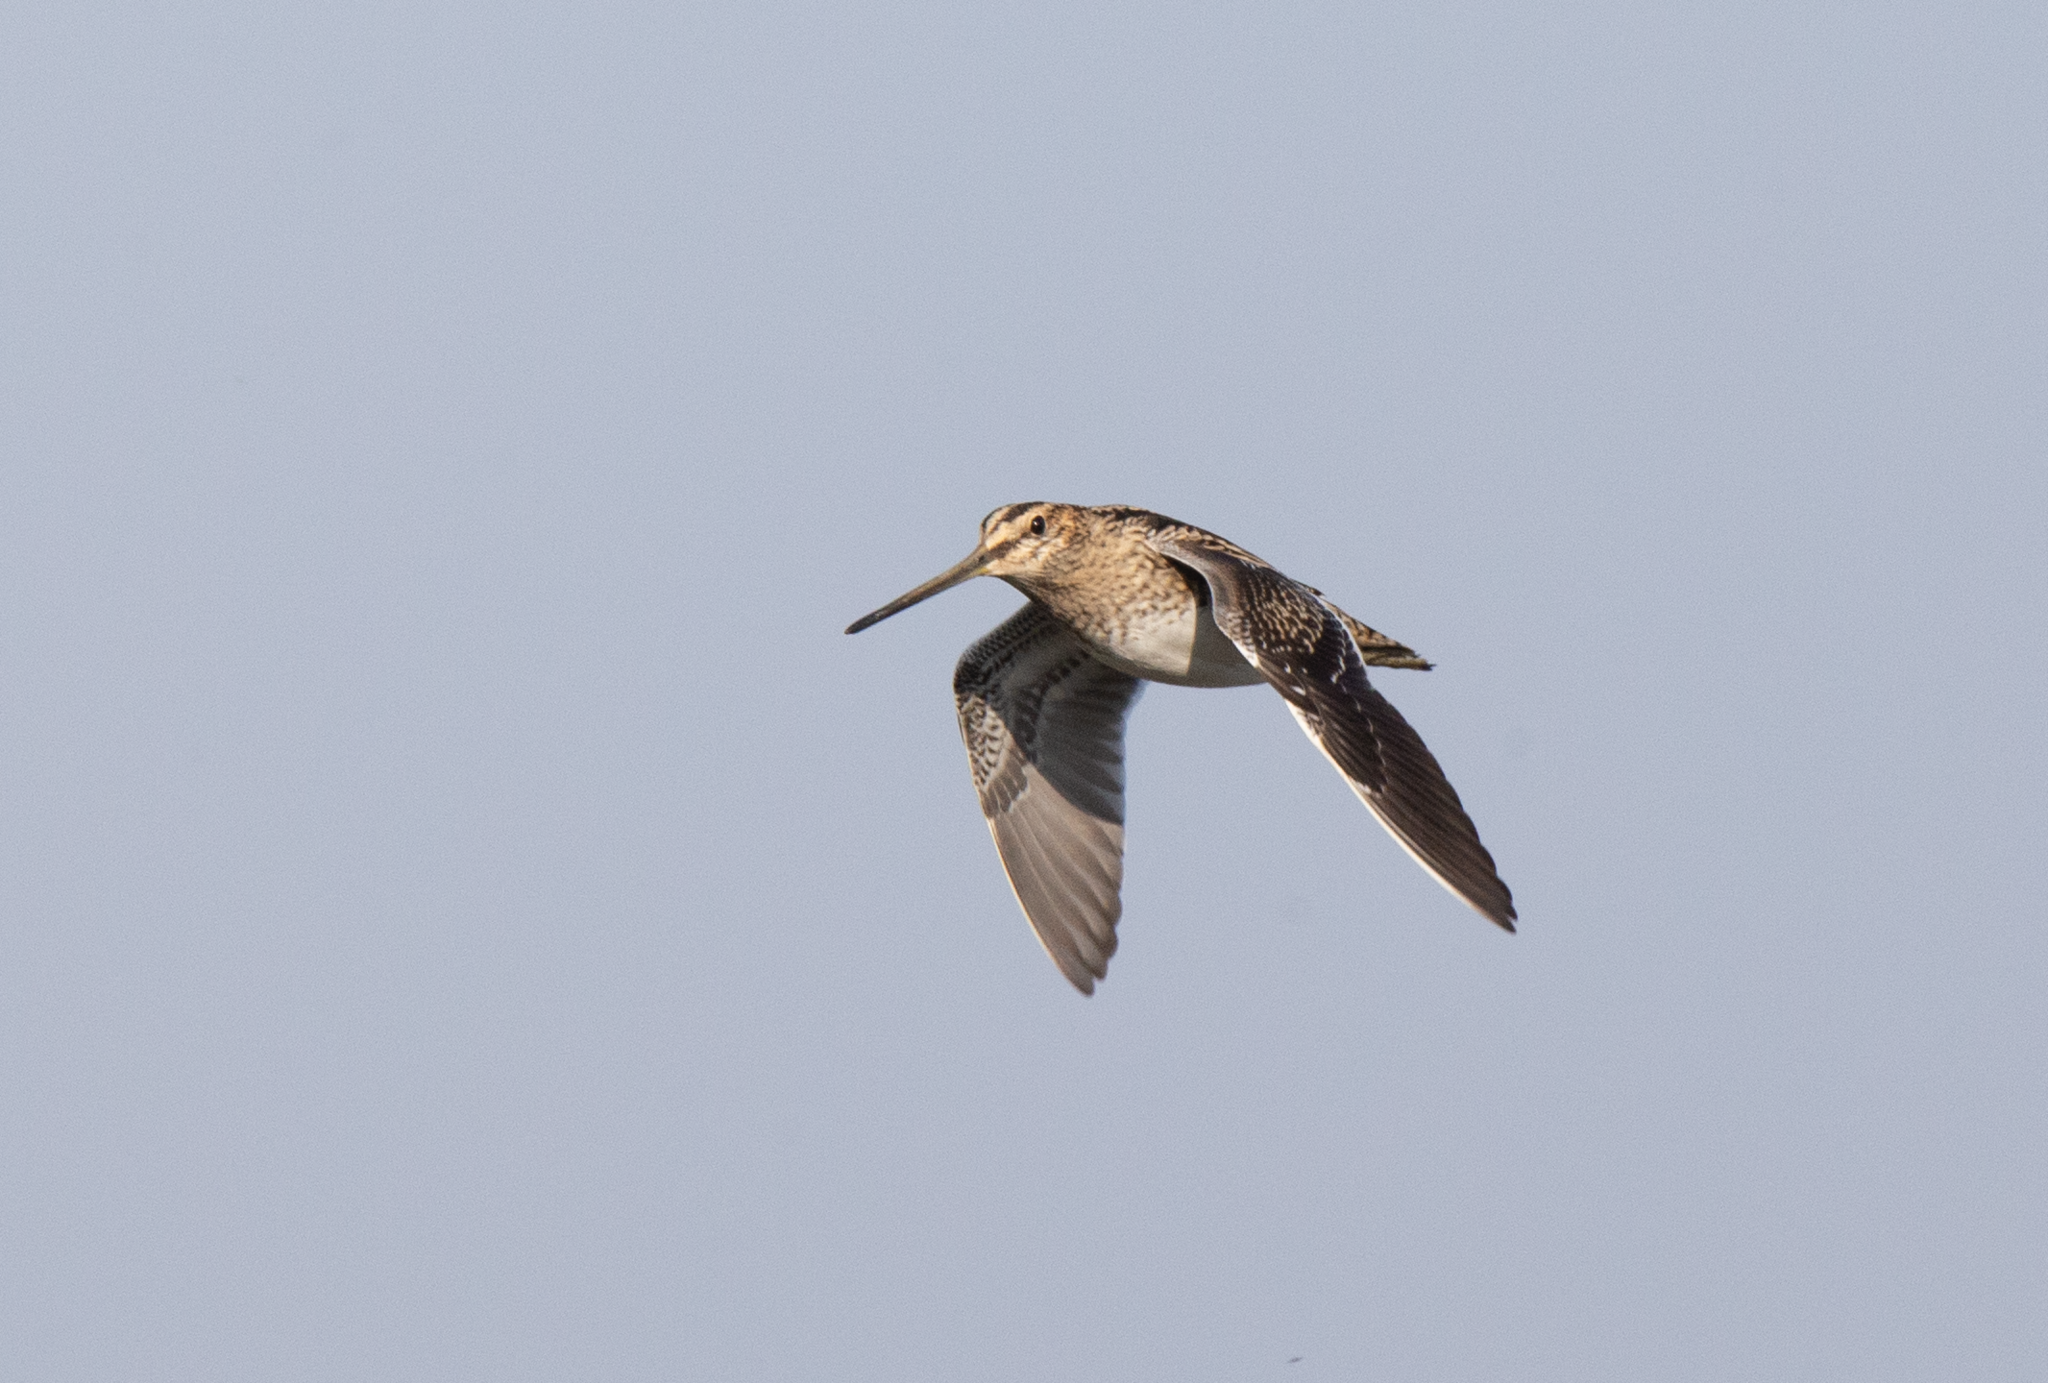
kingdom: Animalia
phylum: Chordata
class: Aves
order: Charadriiformes
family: Scolopacidae
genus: Gallinago
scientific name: Gallinago gallinago
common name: Common snipe
